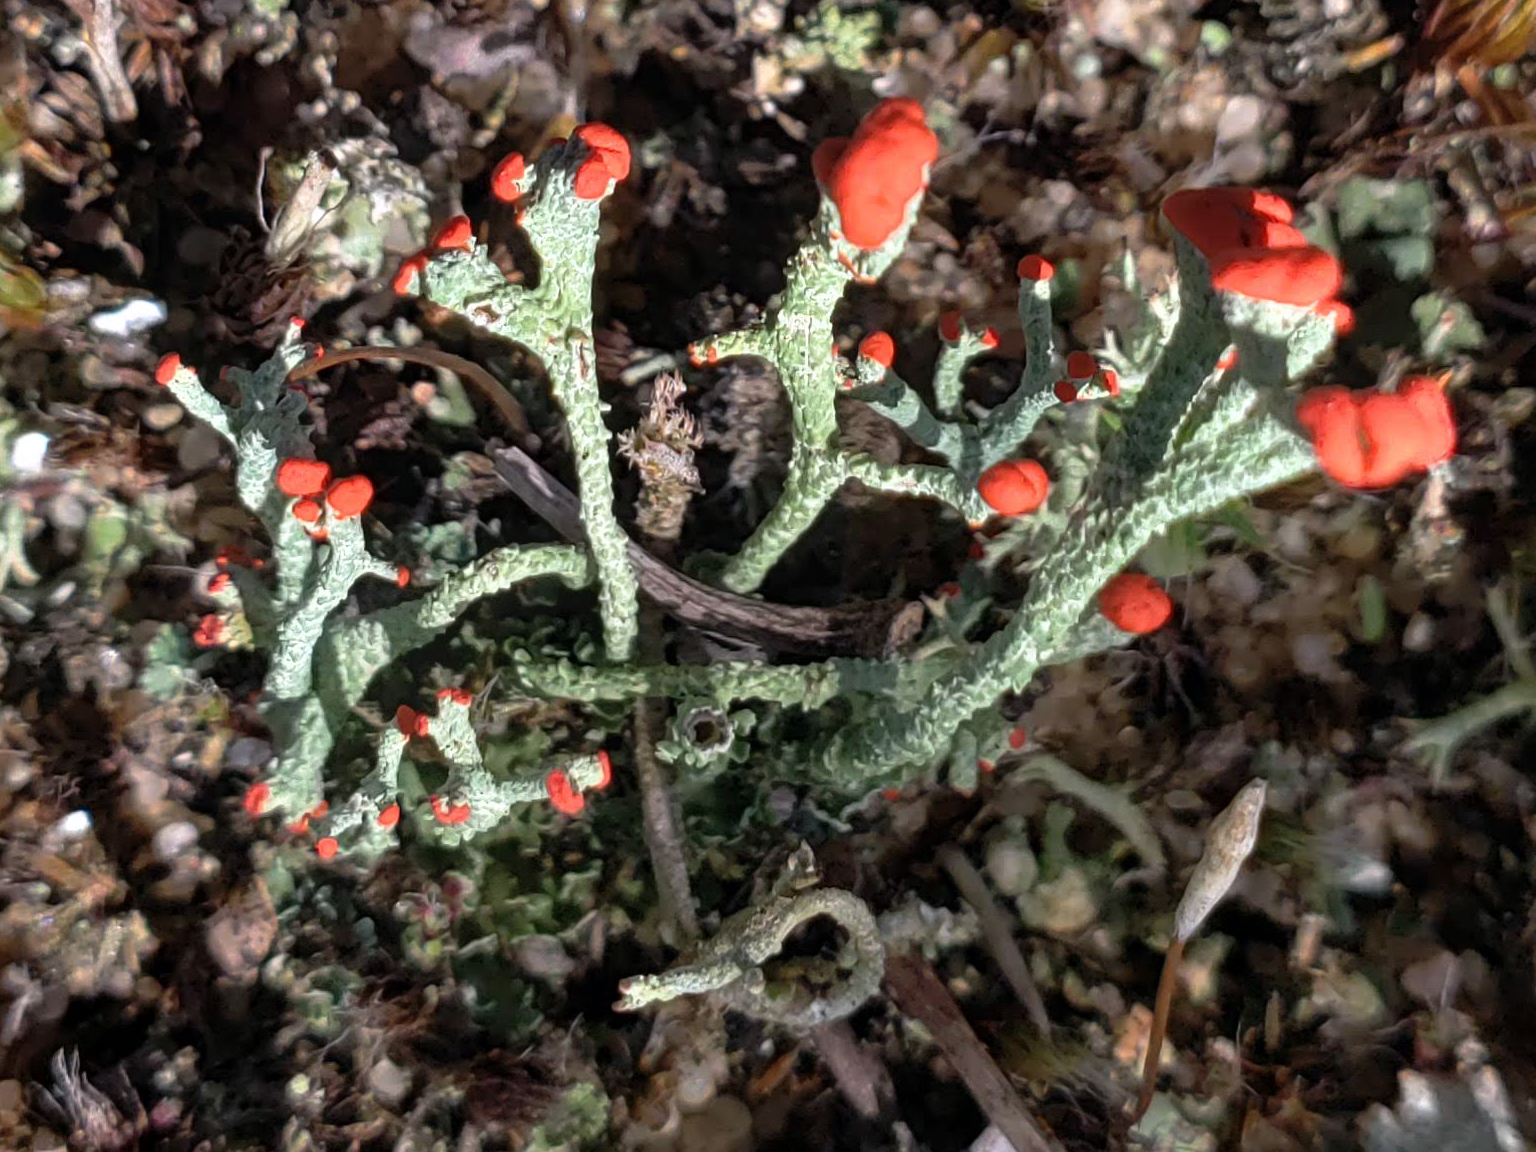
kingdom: Fungi
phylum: Ascomycota
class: Lecanoromycetes
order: Lecanorales
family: Cladoniaceae
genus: Cladonia
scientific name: Cladonia cristatella
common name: British soldier lichen
